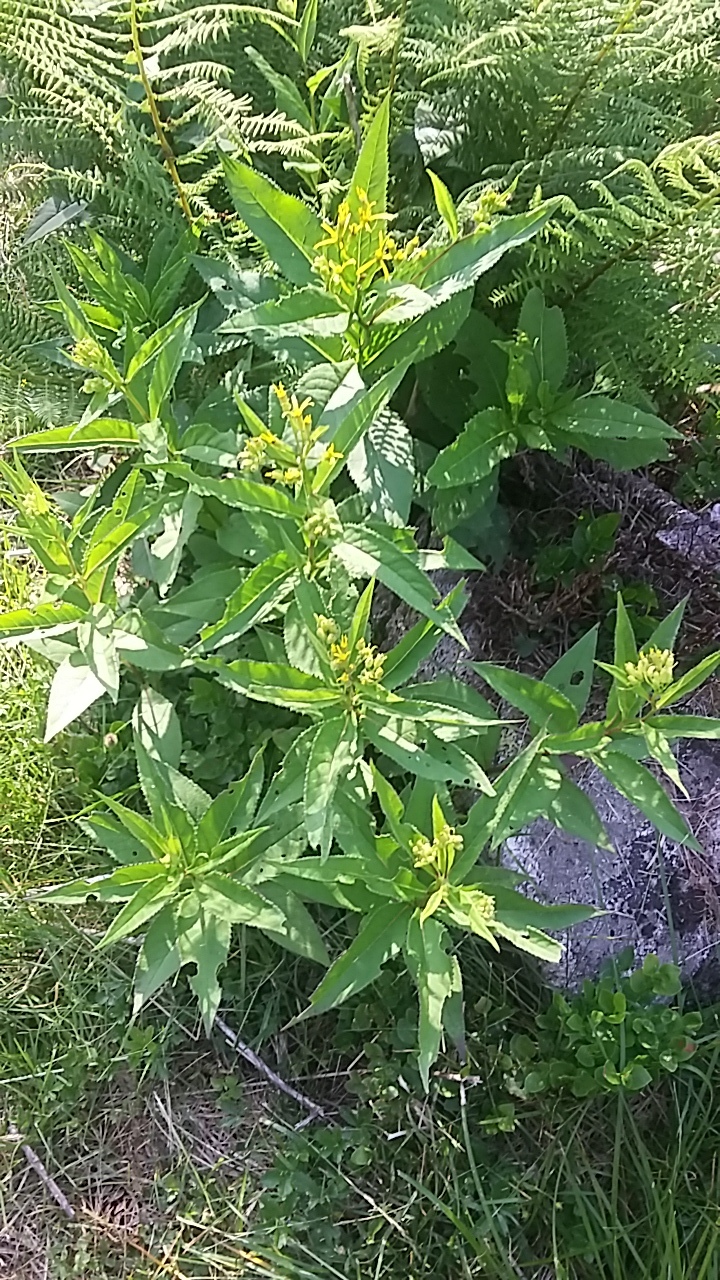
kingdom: Plantae
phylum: Tracheophyta
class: Magnoliopsida
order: Asterales
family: Asteraceae
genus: Solidago
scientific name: Solidago virgaurea
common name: Goldenrod
